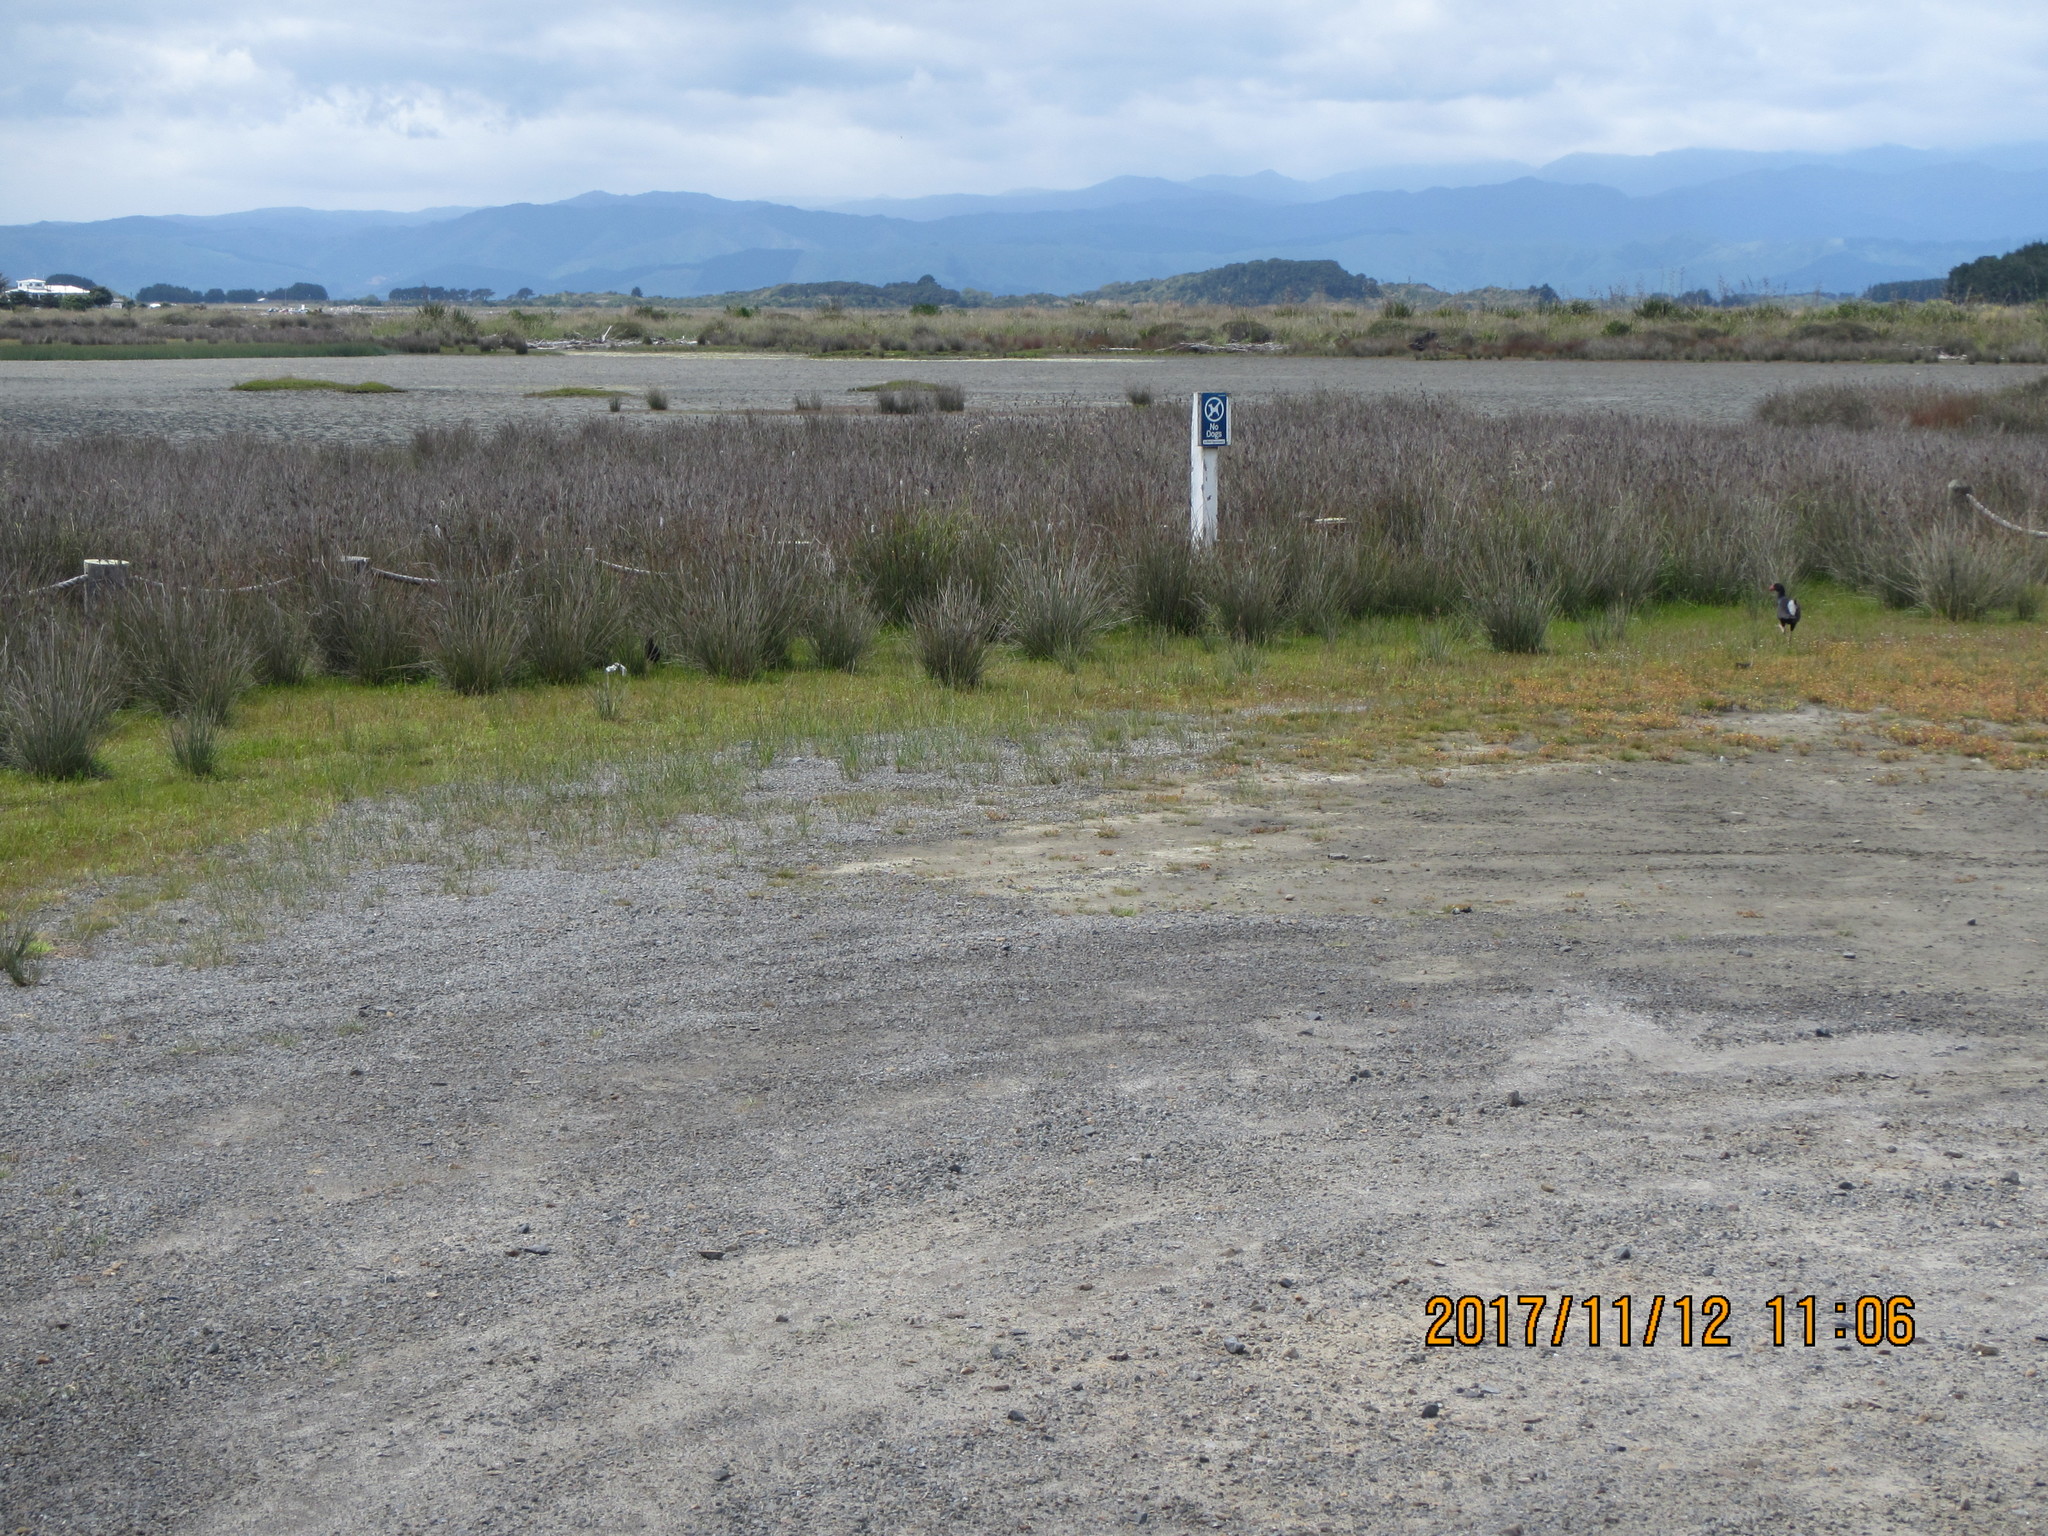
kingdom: Animalia
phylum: Chordata
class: Aves
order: Gruiformes
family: Rallidae
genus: Porphyrio
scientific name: Porphyrio melanotus
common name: Australasian swamphen
